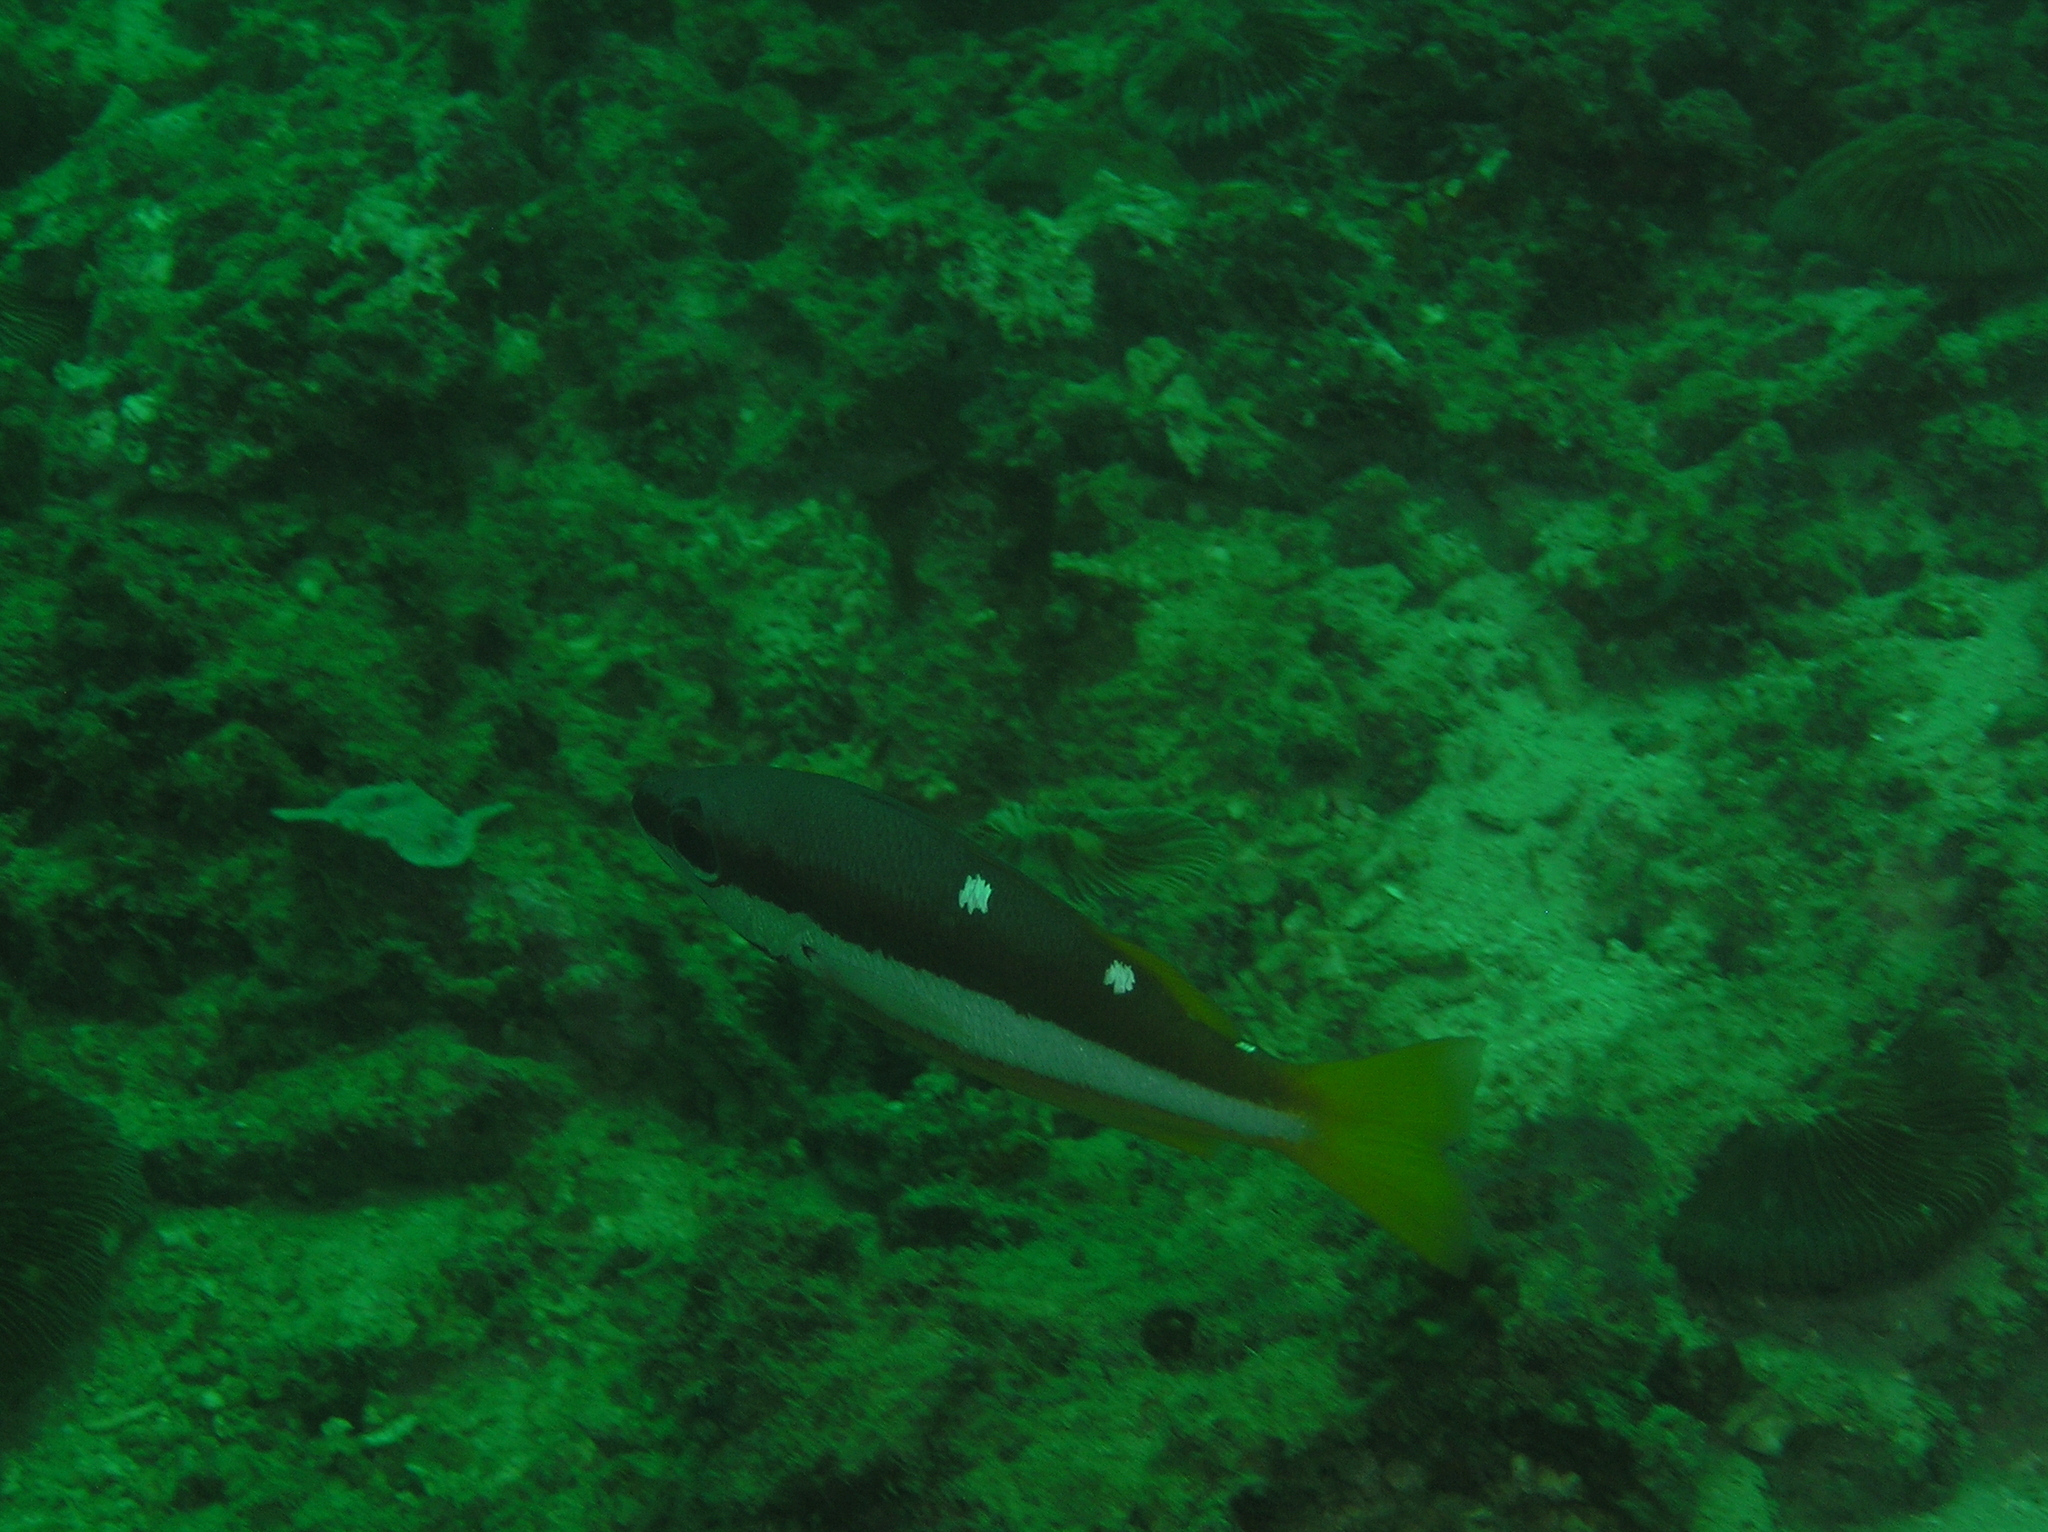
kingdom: Animalia
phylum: Chordata
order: Perciformes
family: Lutjanidae
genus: Lutjanus
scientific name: Lutjanus biguttatus
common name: Two-spot snapper
